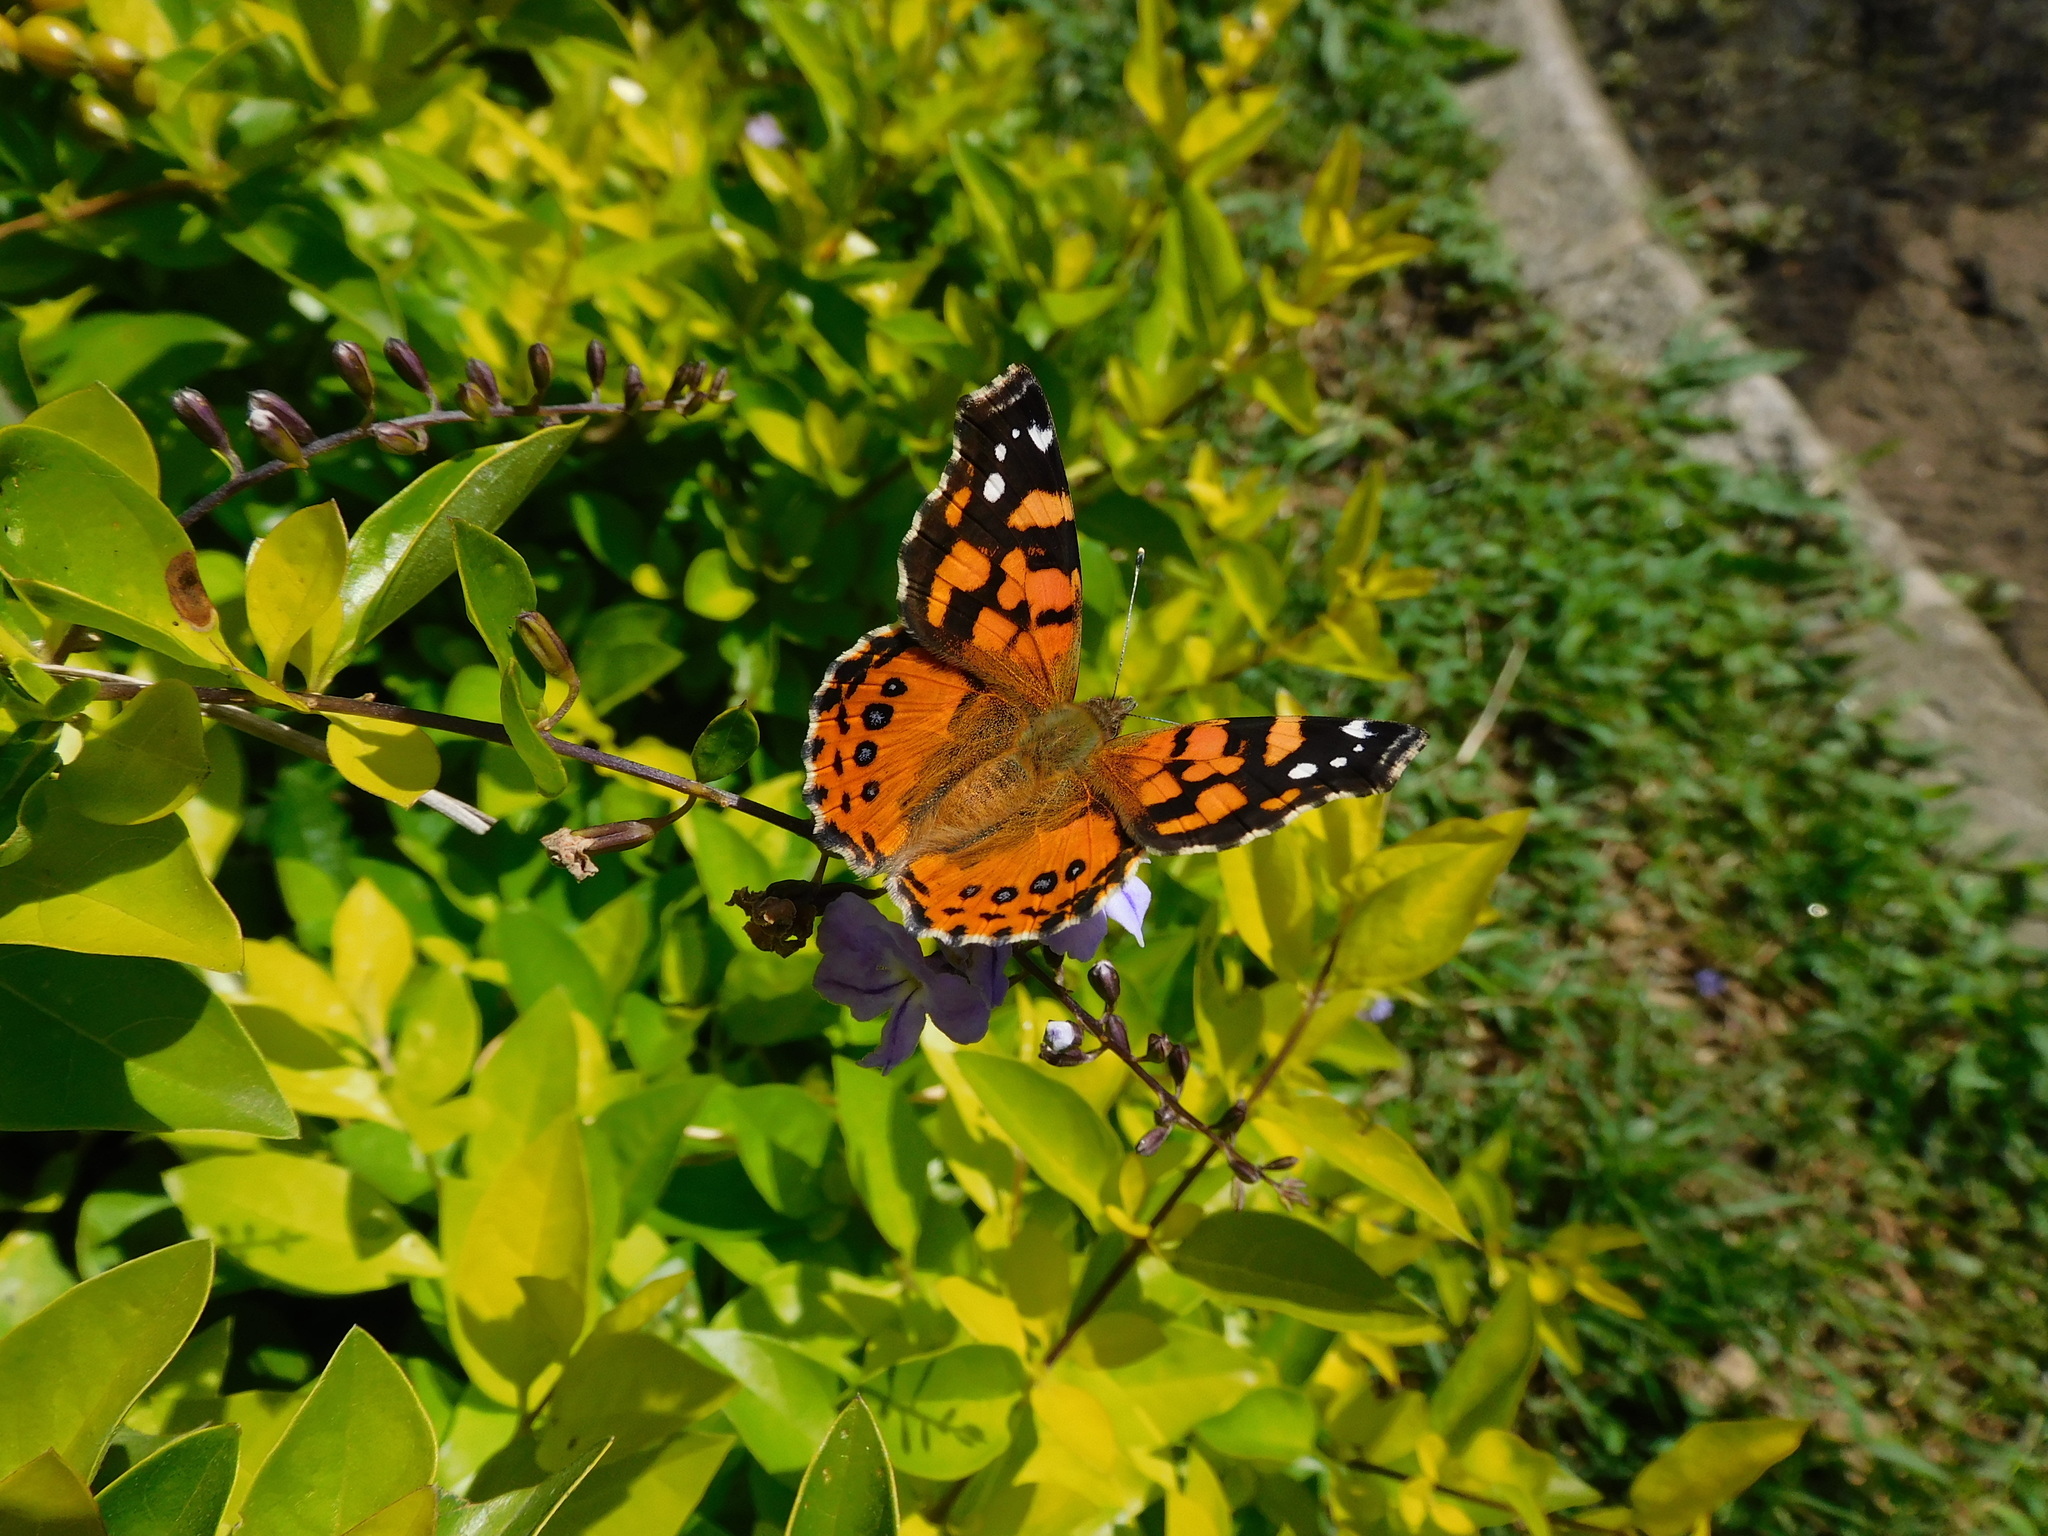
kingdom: Animalia
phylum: Arthropoda
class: Insecta
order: Lepidoptera
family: Nymphalidae
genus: Vanessa
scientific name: Vanessa carye
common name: Subtropical lady
